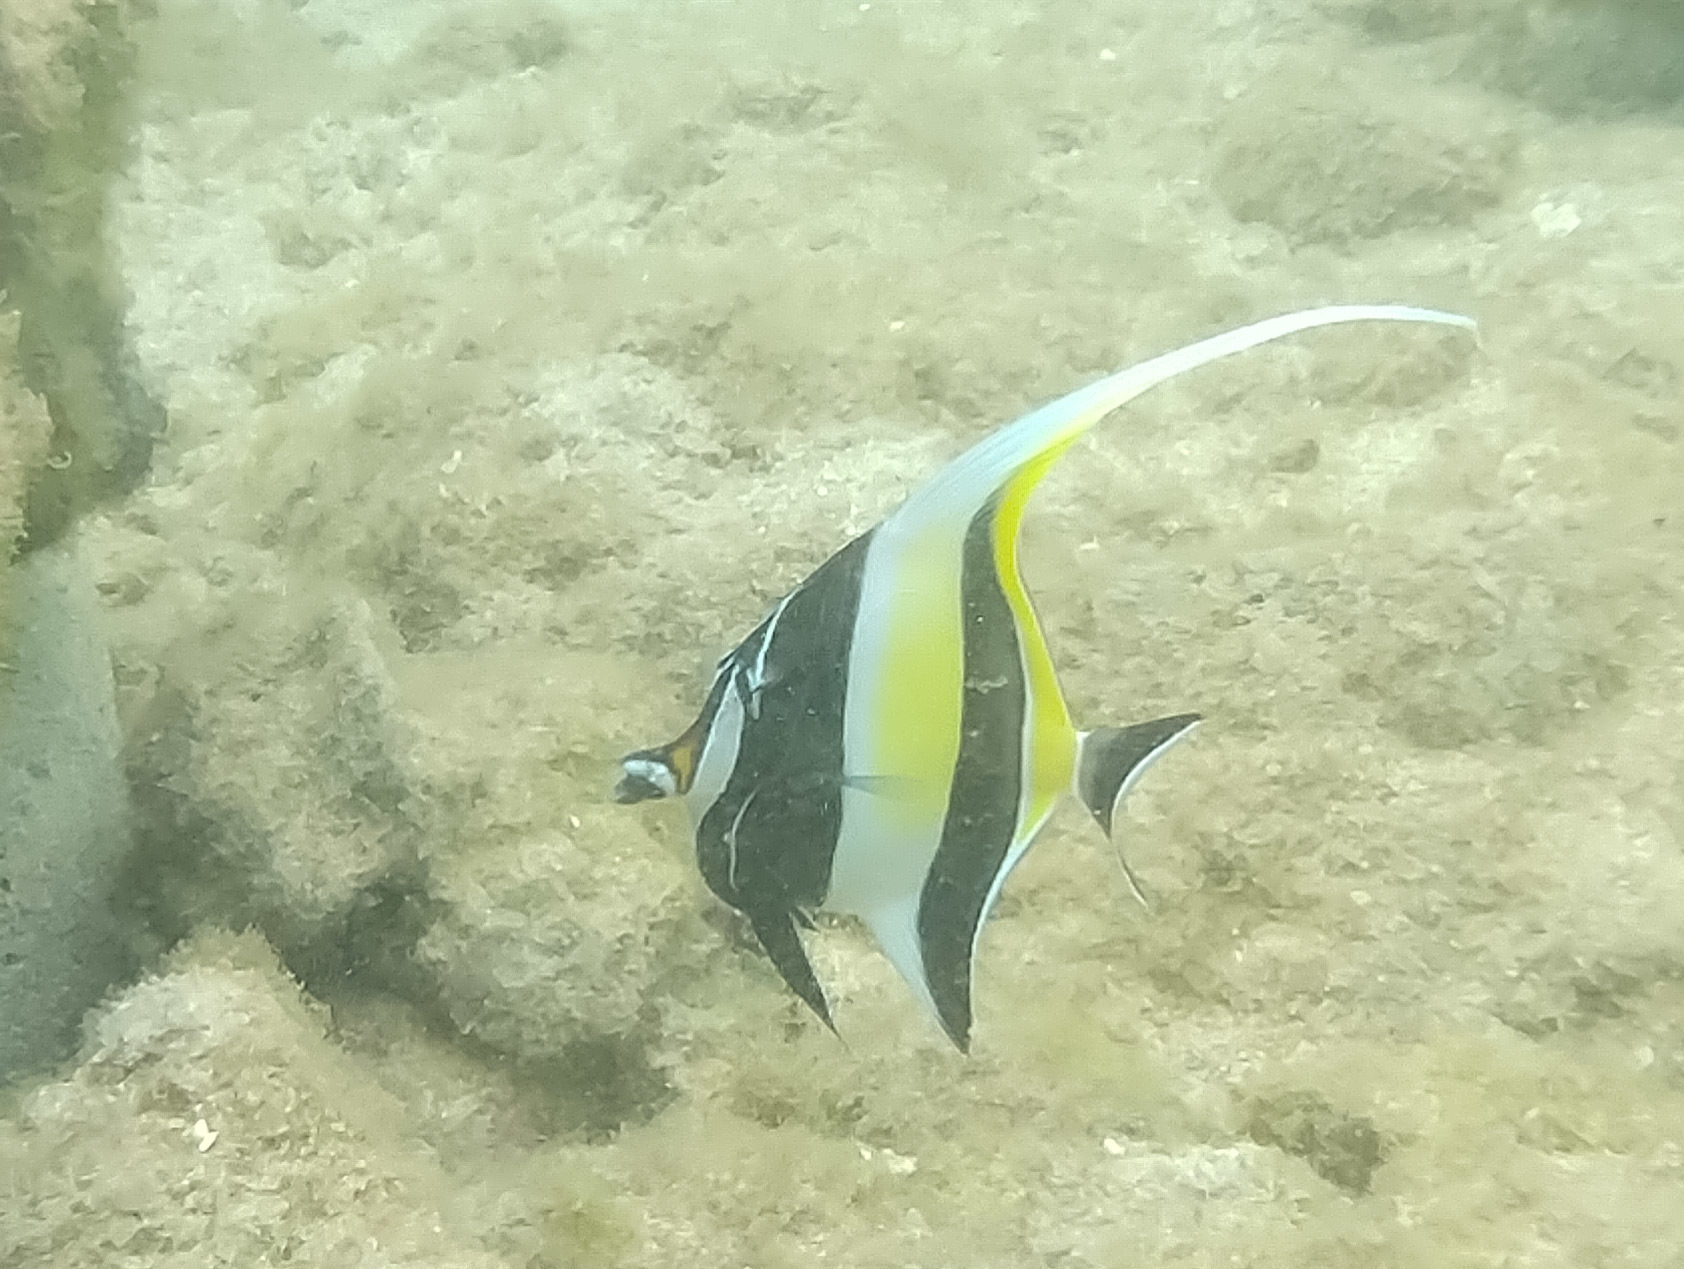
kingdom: Animalia
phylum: Chordata
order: Perciformes
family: Zanclidae
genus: Zanclus
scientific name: Zanclus cornutus
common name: Moorish idol
